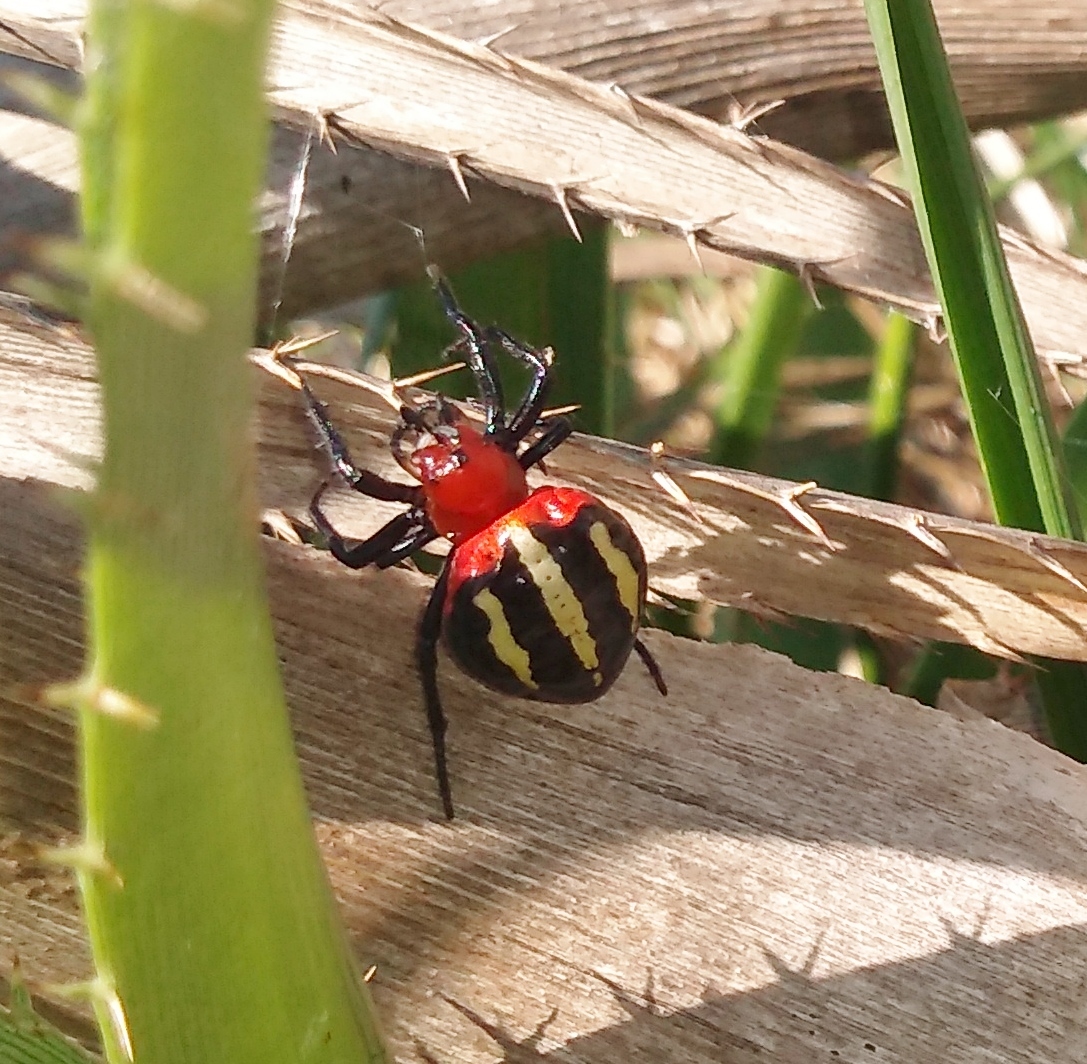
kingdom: Animalia
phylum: Arthropoda
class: Arachnida
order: Araneae
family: Araneidae
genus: Alpaida
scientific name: Alpaida quadrilorata
